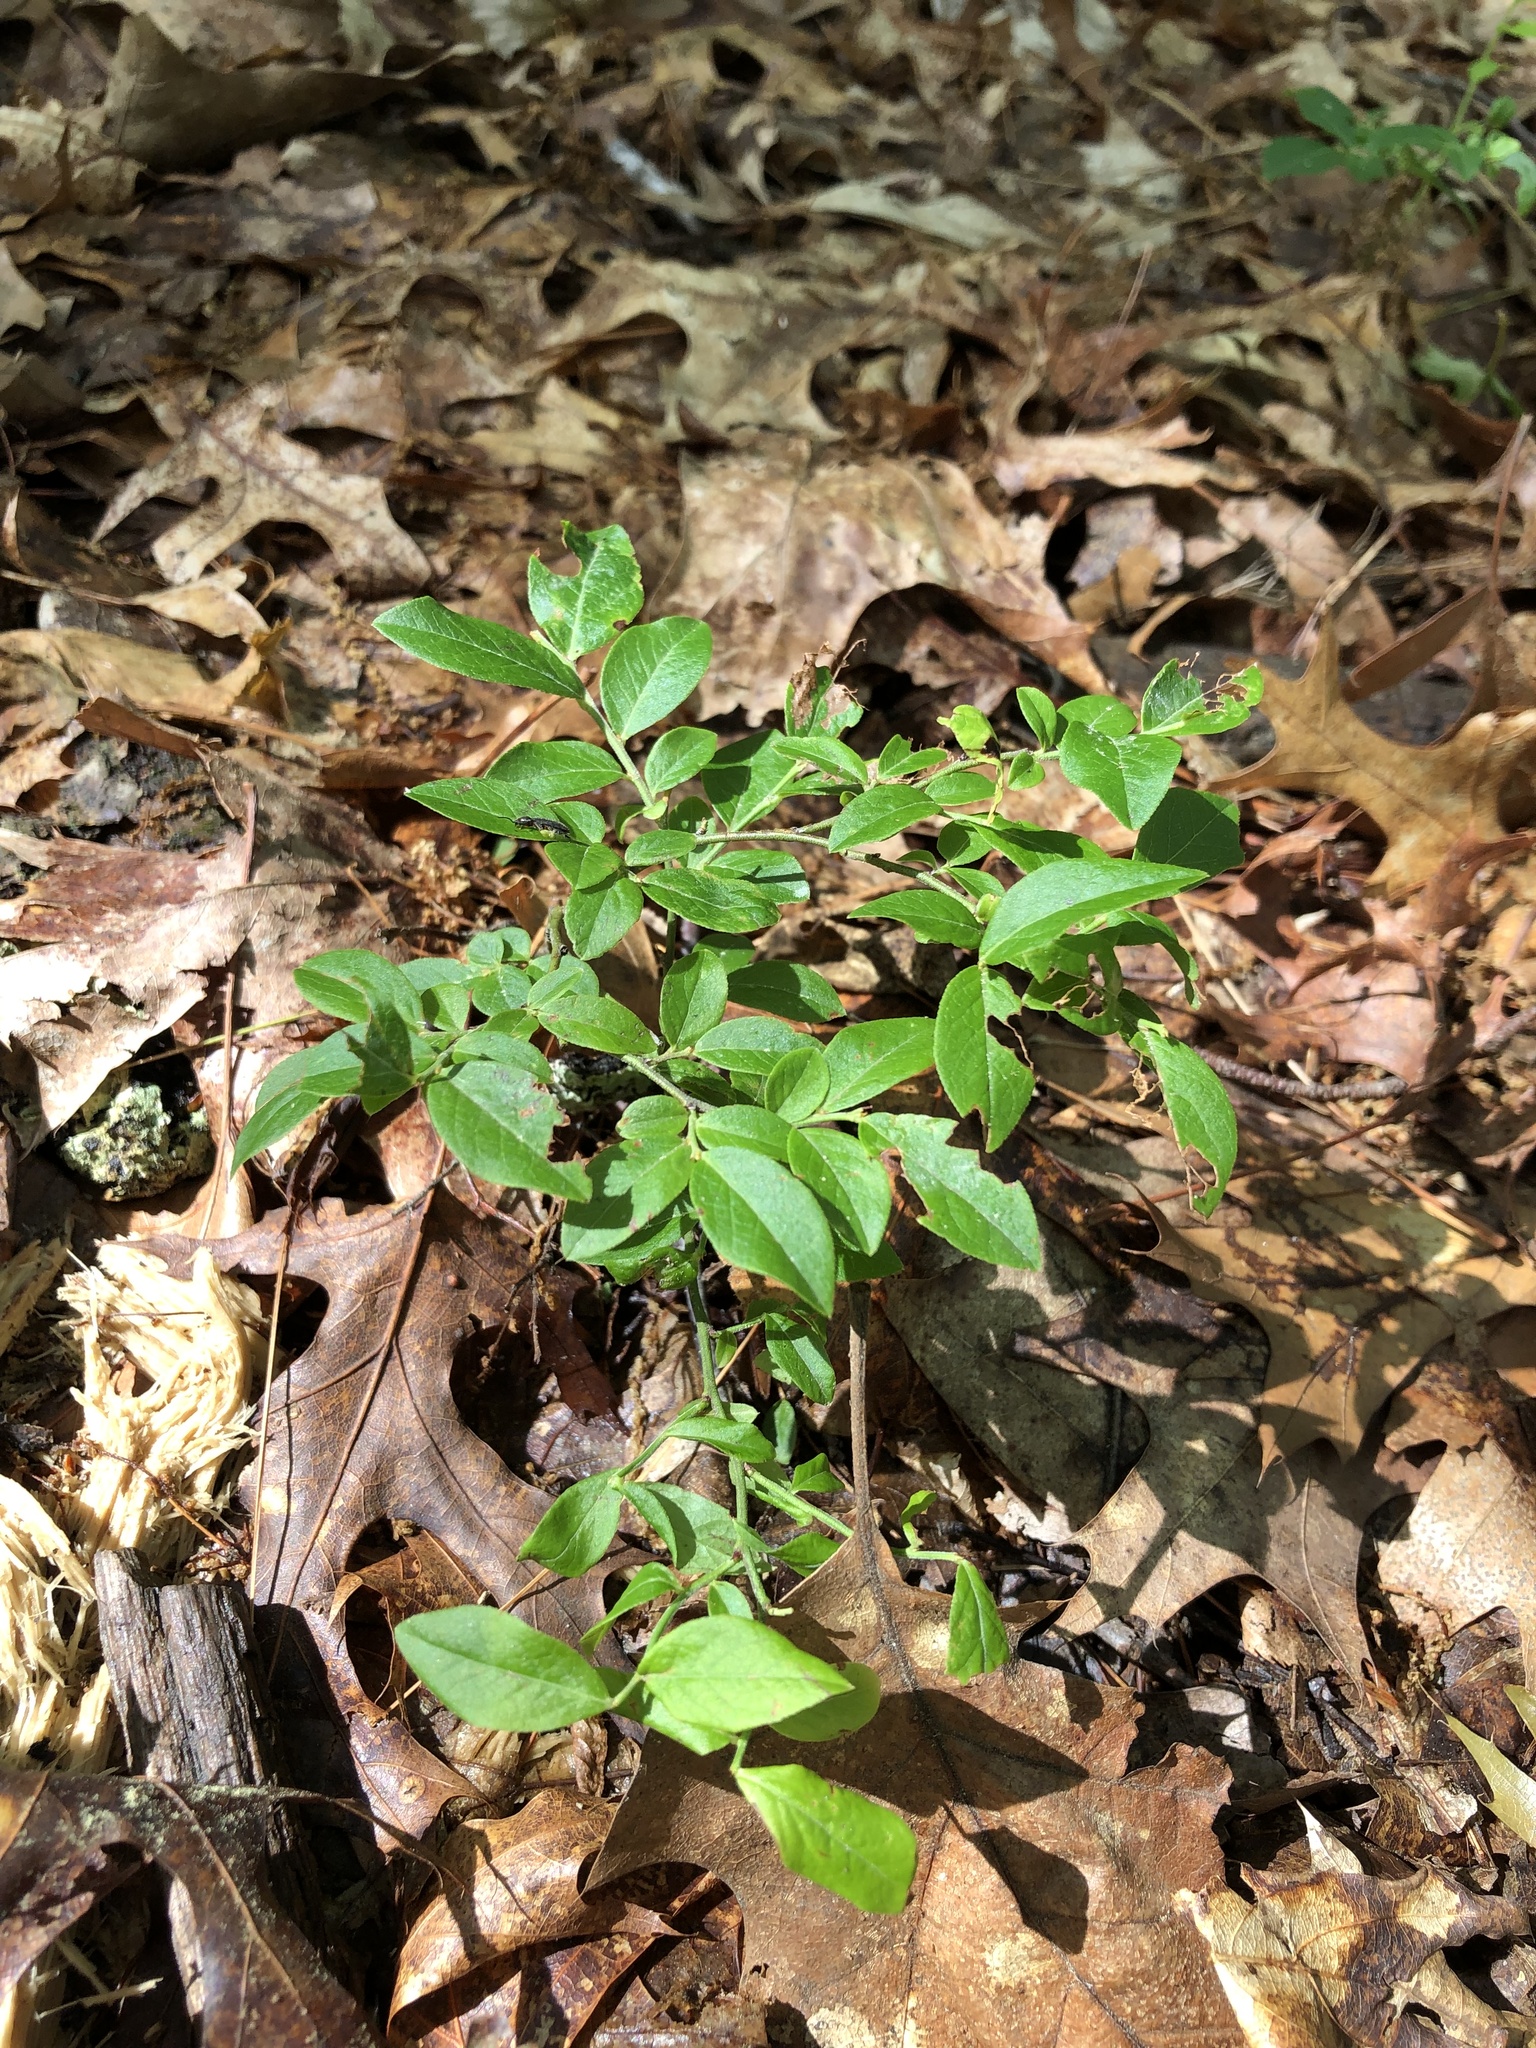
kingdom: Plantae
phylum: Tracheophyta
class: Magnoliopsida
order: Ericales
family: Ericaceae
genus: Vaccinium
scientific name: Vaccinium angustifolium
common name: Early lowbush blueberry
